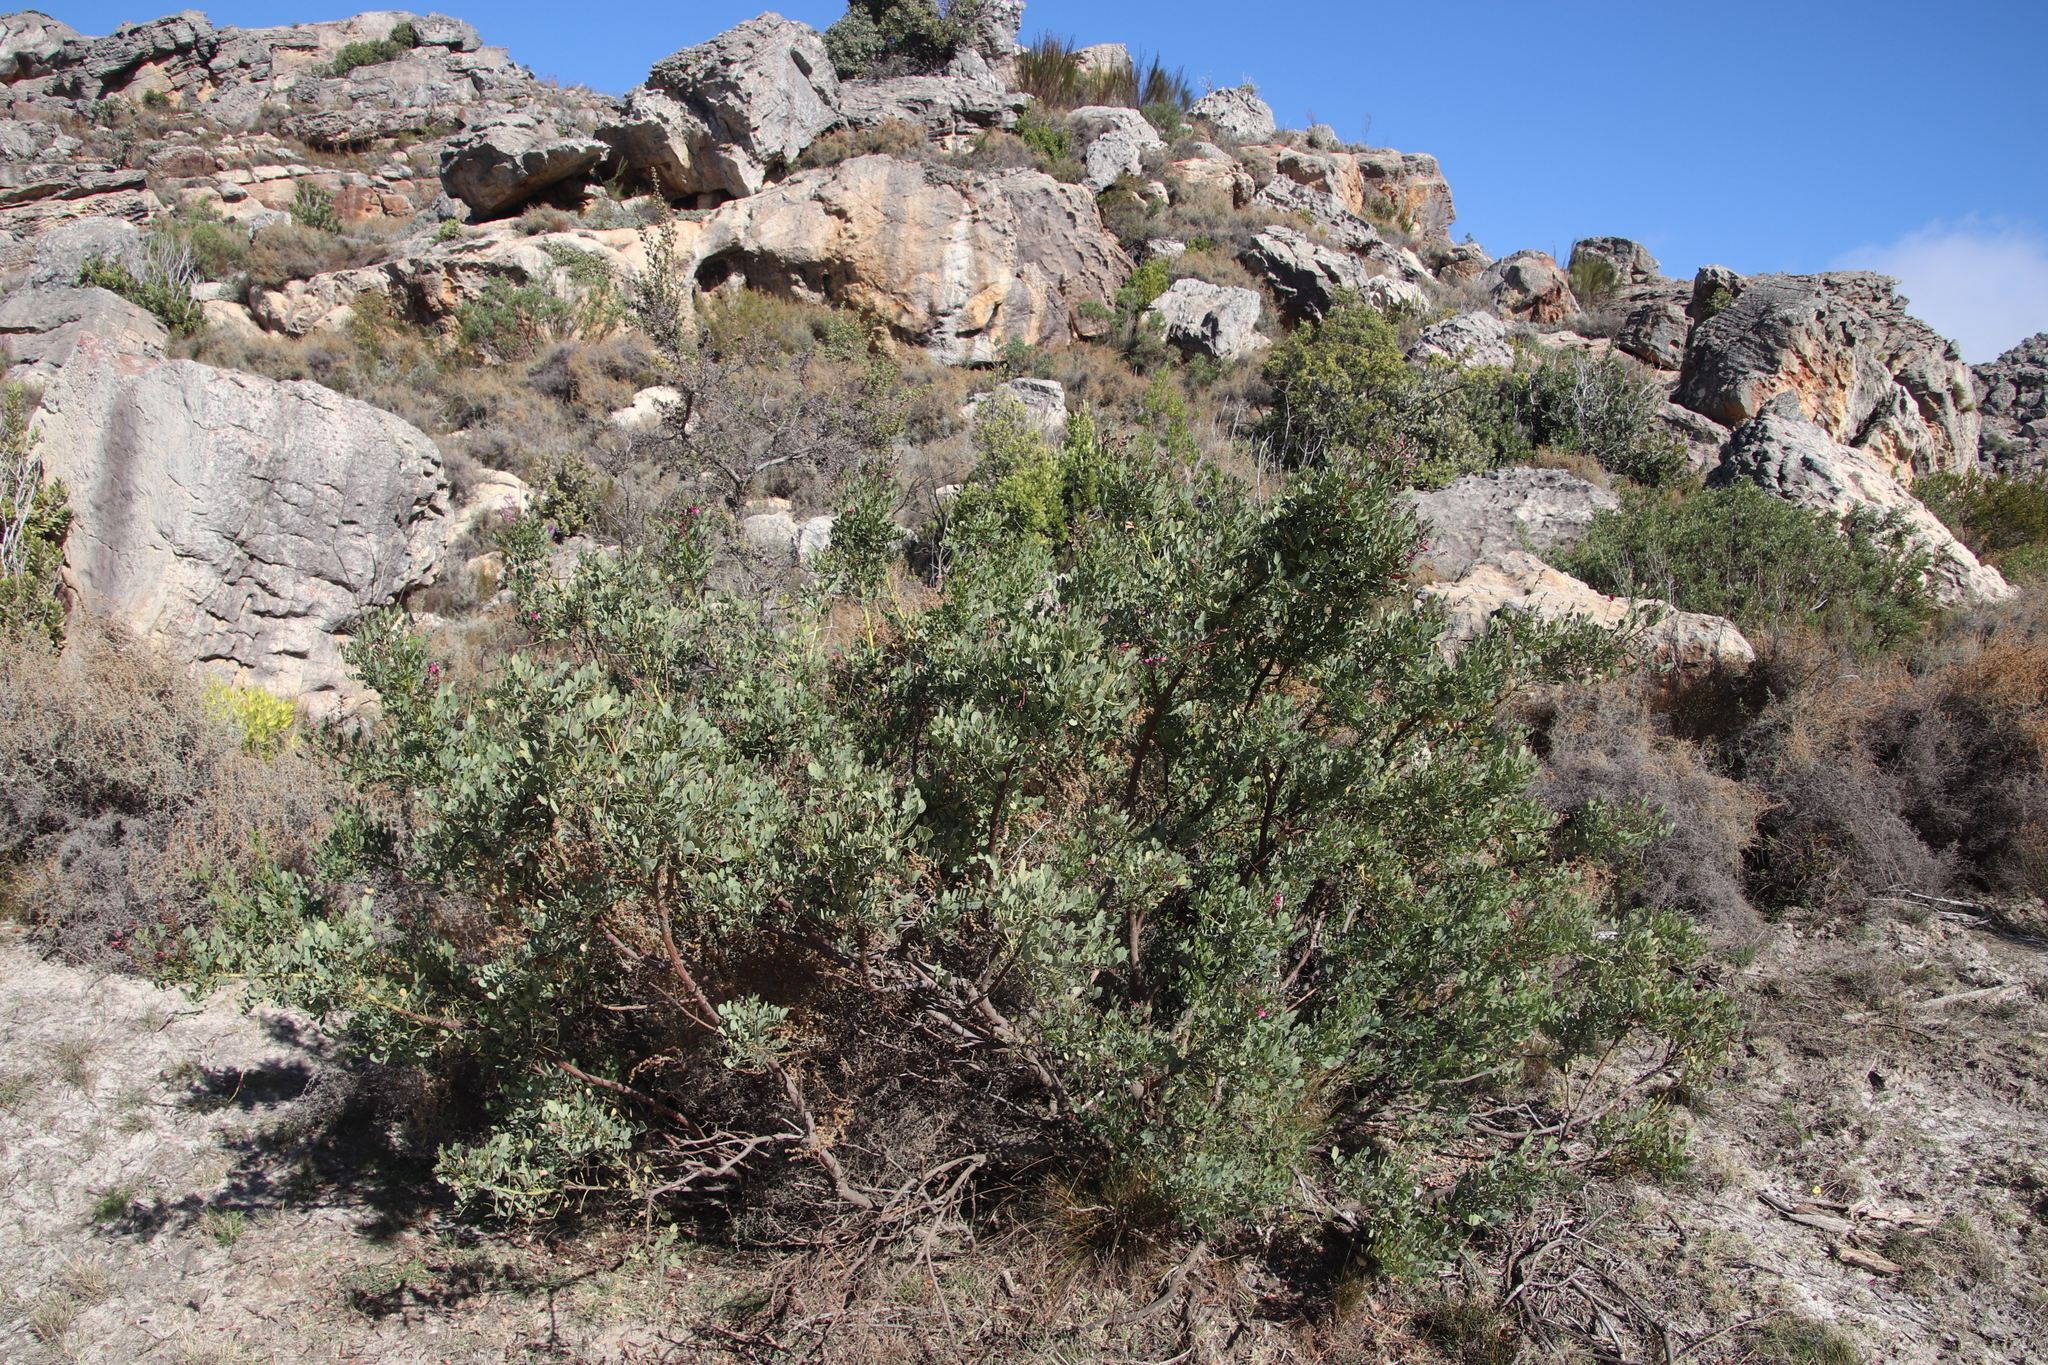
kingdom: Plantae
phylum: Tracheophyta
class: Magnoliopsida
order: Fabales
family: Fabaceae
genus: Indigofera
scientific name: Indigofera frutescens
